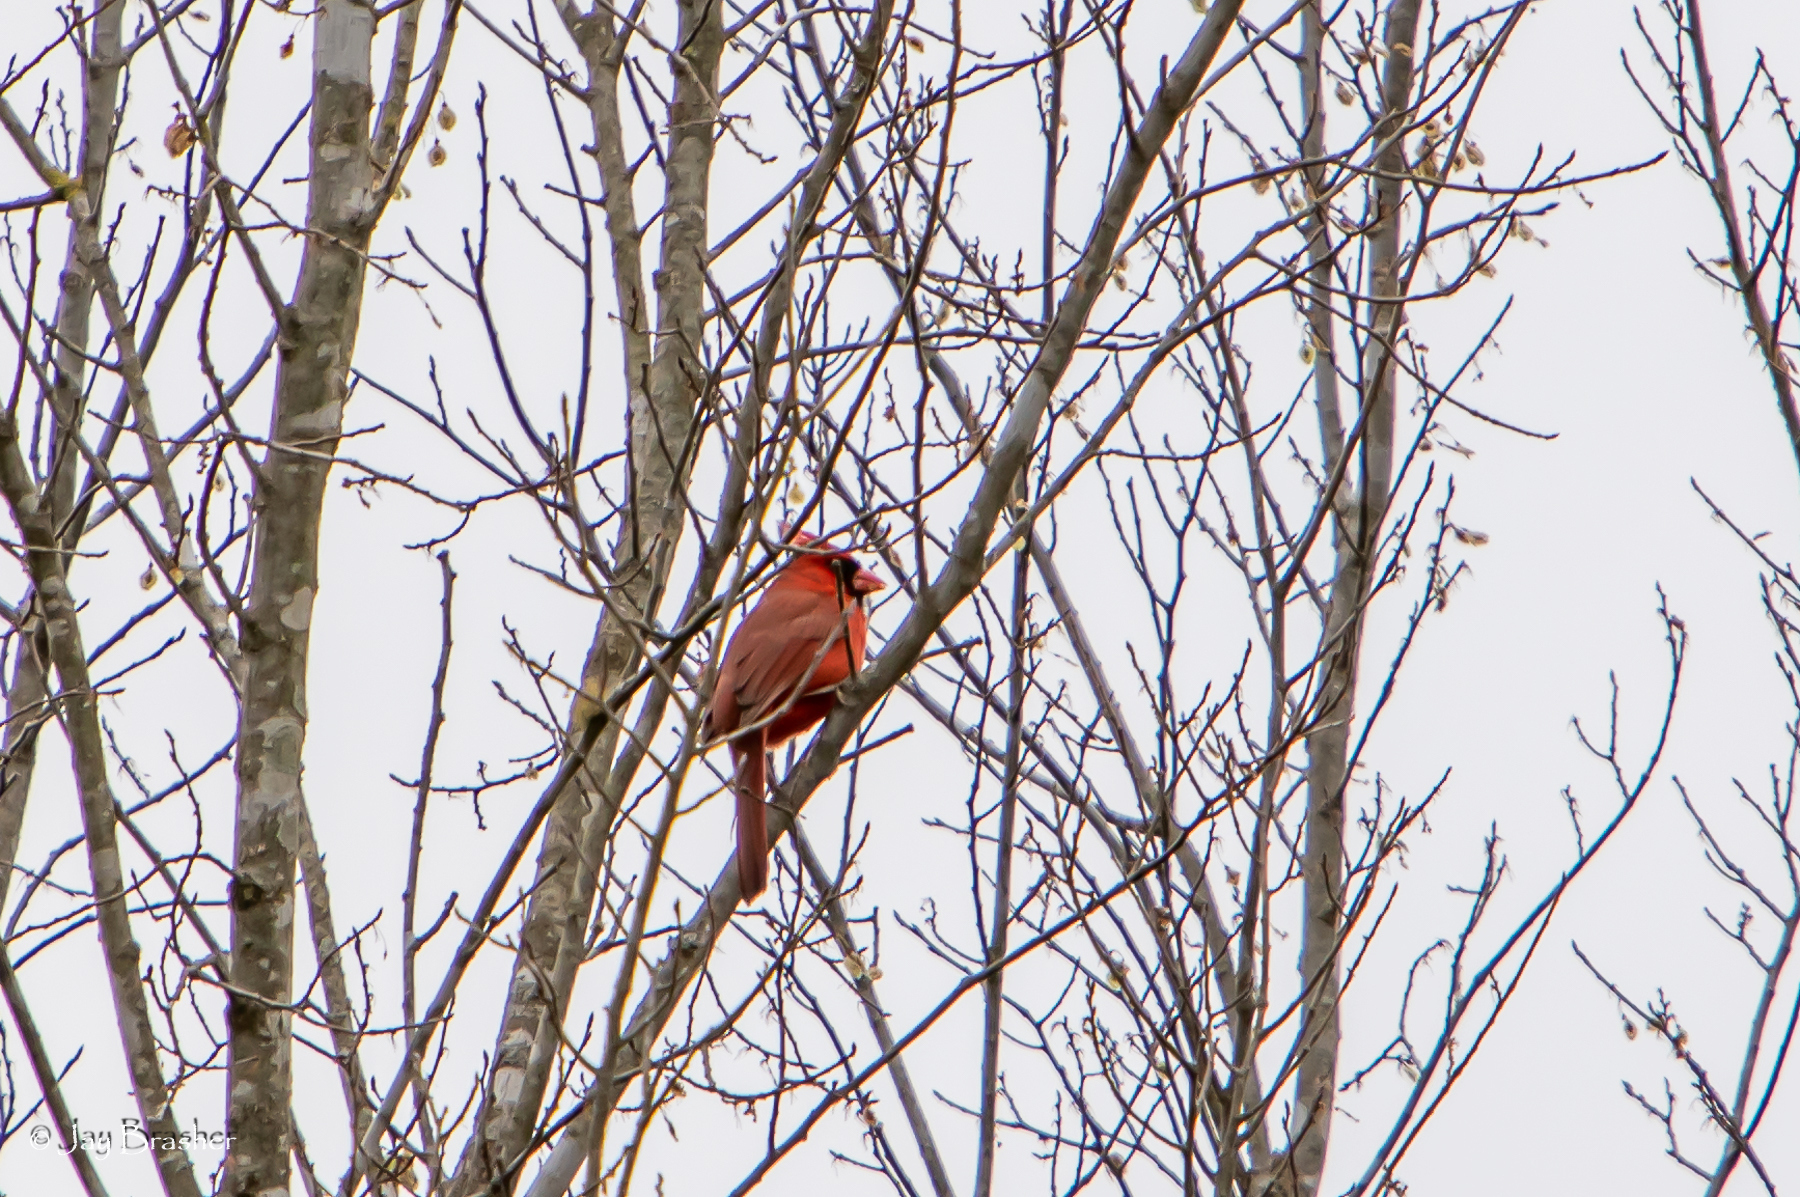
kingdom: Animalia
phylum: Chordata
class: Aves
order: Passeriformes
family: Cardinalidae
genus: Cardinalis
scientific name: Cardinalis cardinalis
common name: Northern cardinal
